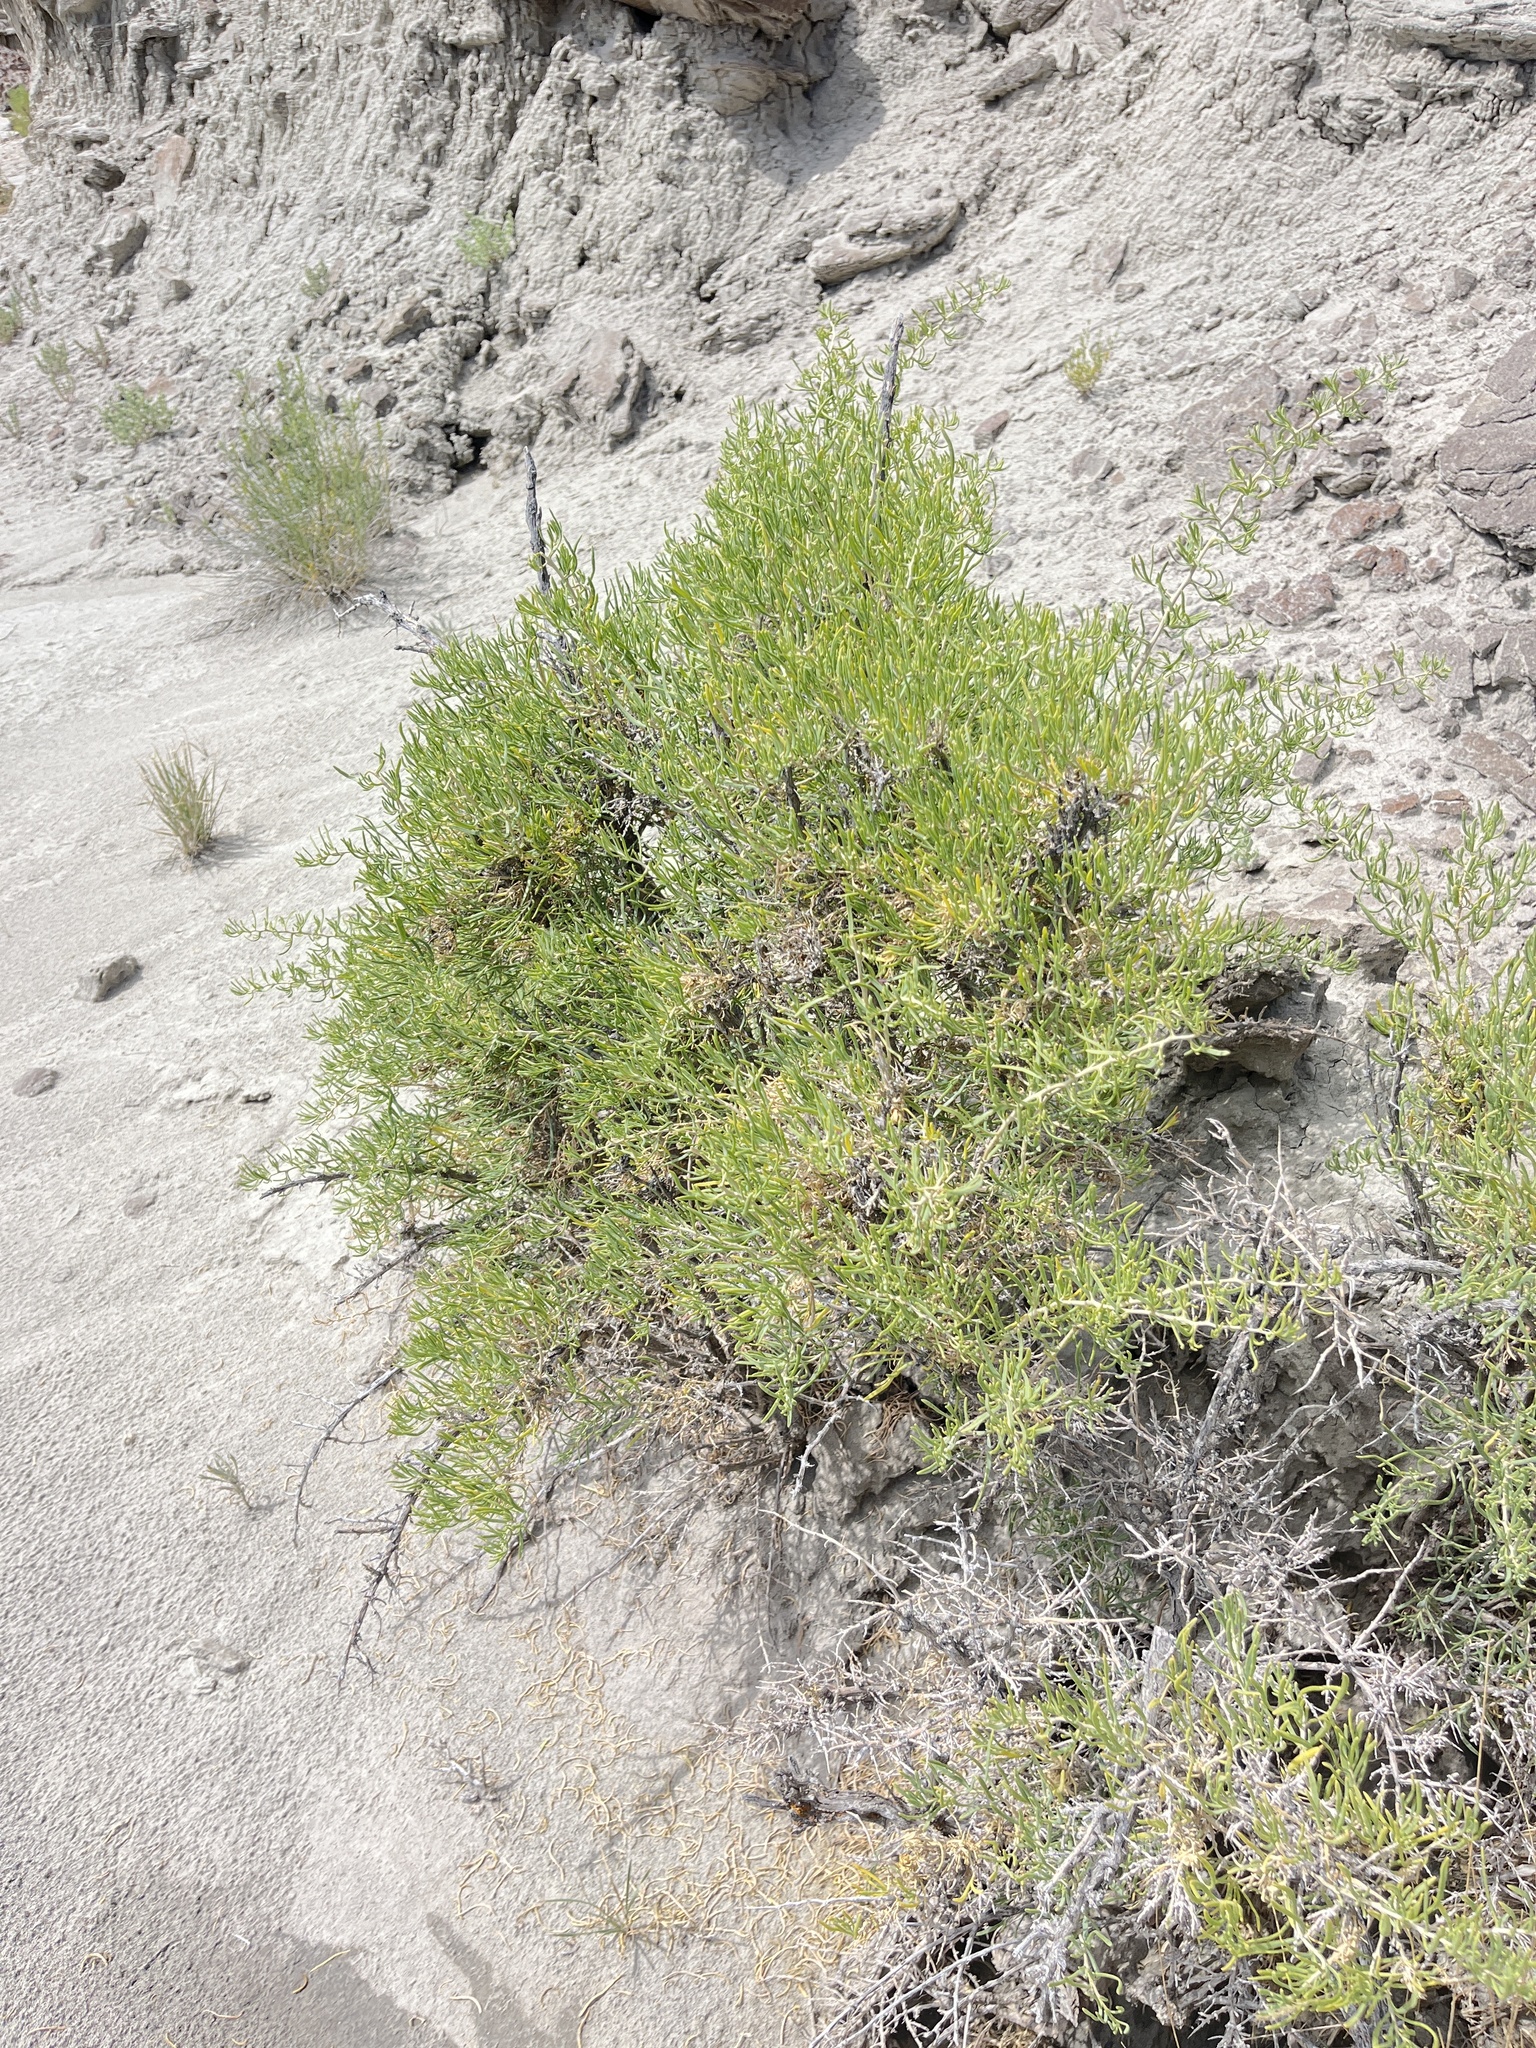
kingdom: Plantae
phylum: Tracheophyta
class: Magnoliopsida
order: Caryophyllales
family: Sarcobataceae
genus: Sarcobatus
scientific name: Sarcobatus vermiculatus
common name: Greasewood
